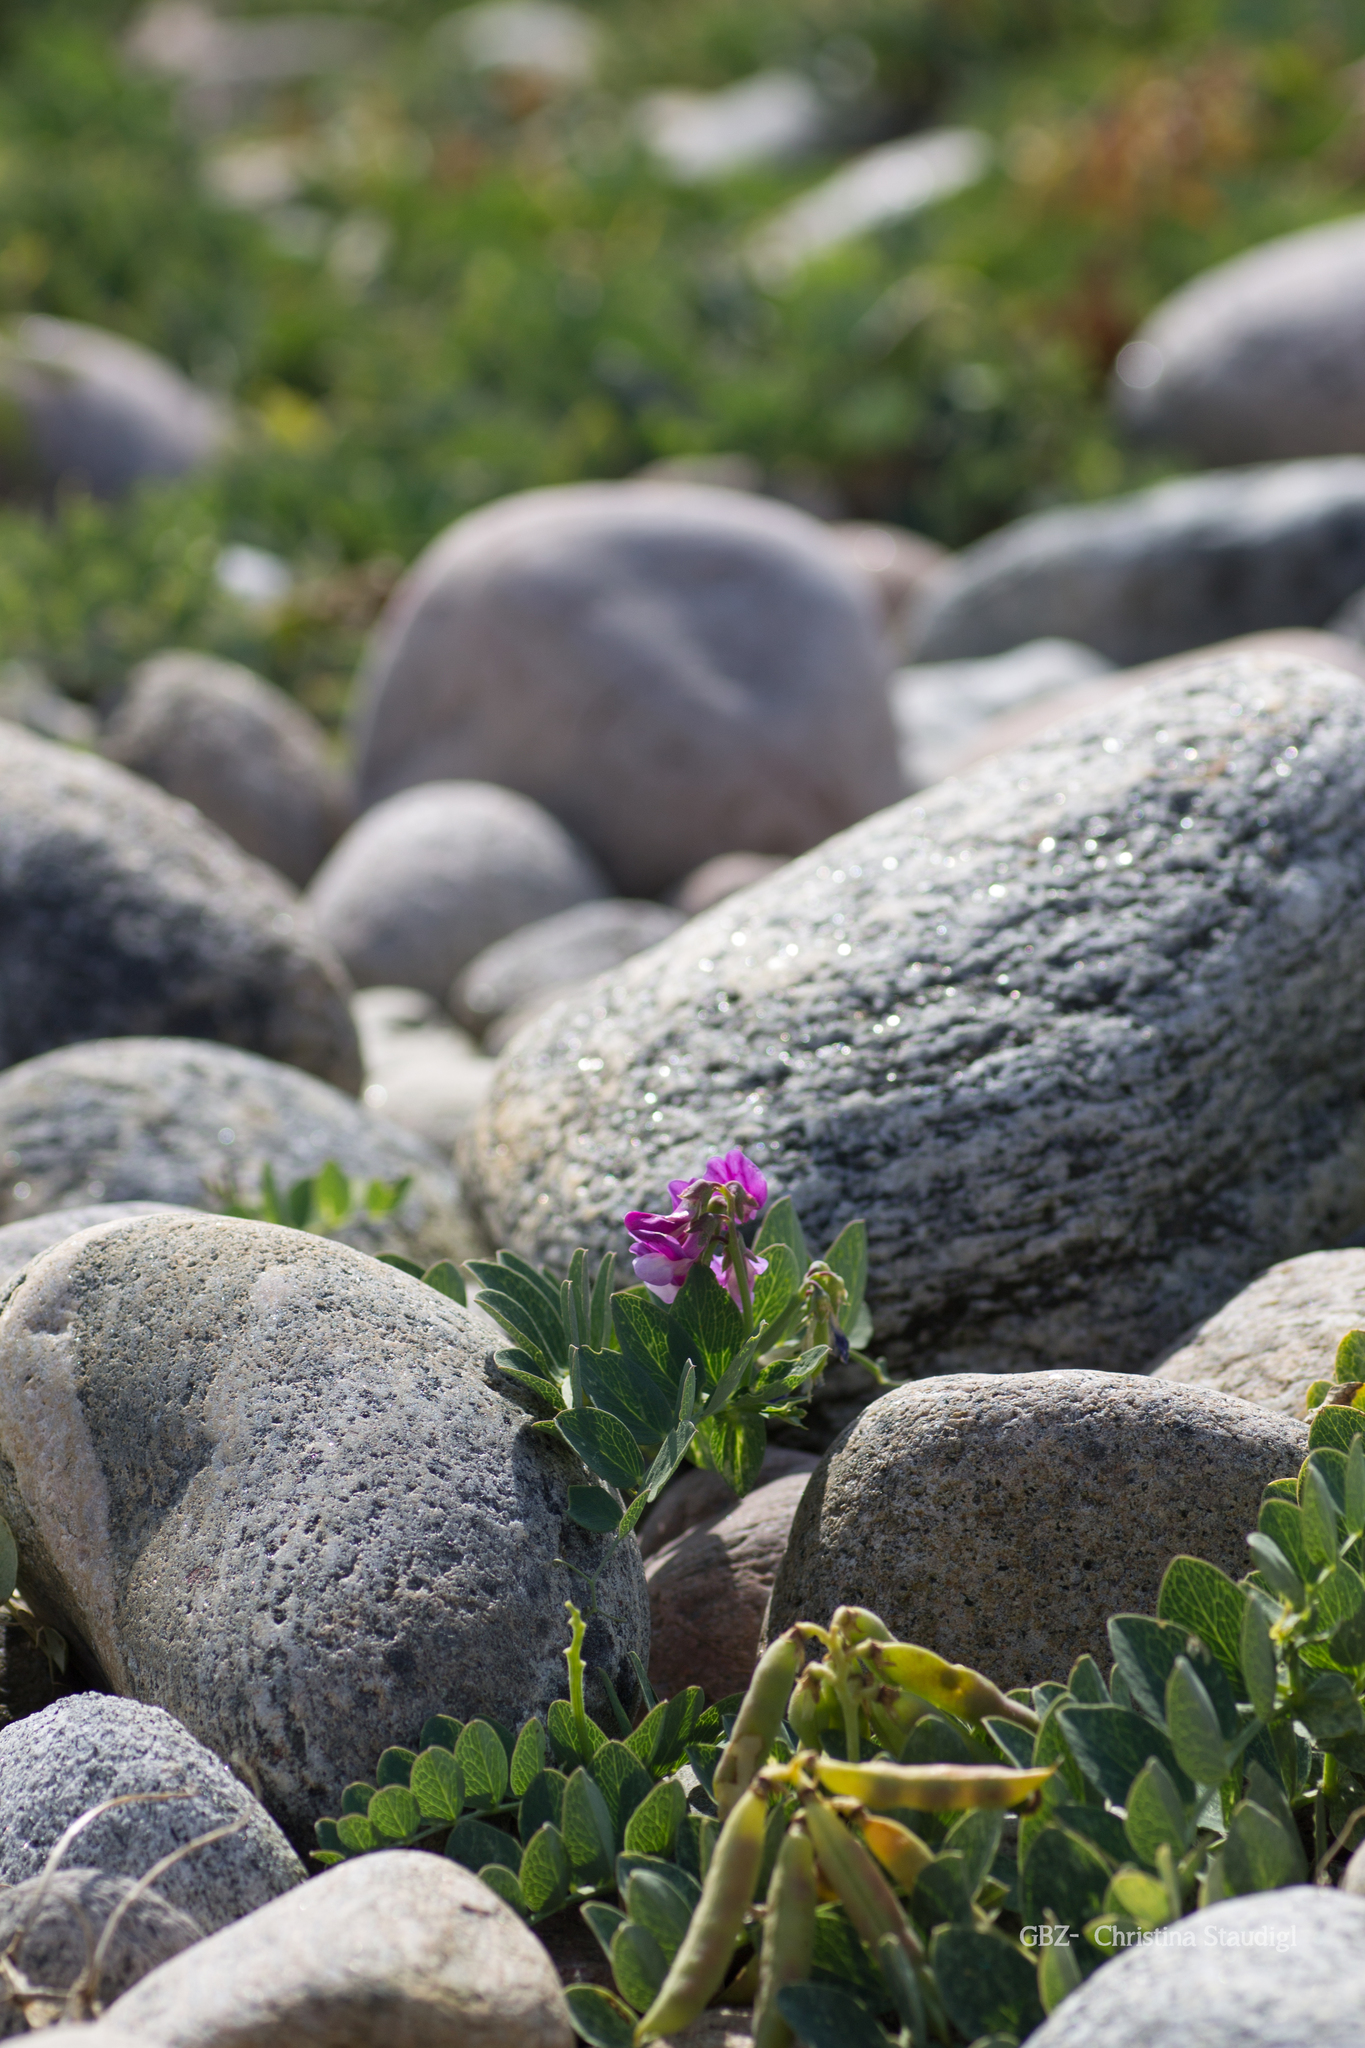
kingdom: Plantae
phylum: Tracheophyta
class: Magnoliopsida
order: Fabales
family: Fabaceae
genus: Lathyrus
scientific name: Lathyrus japonicus
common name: Sea pea
